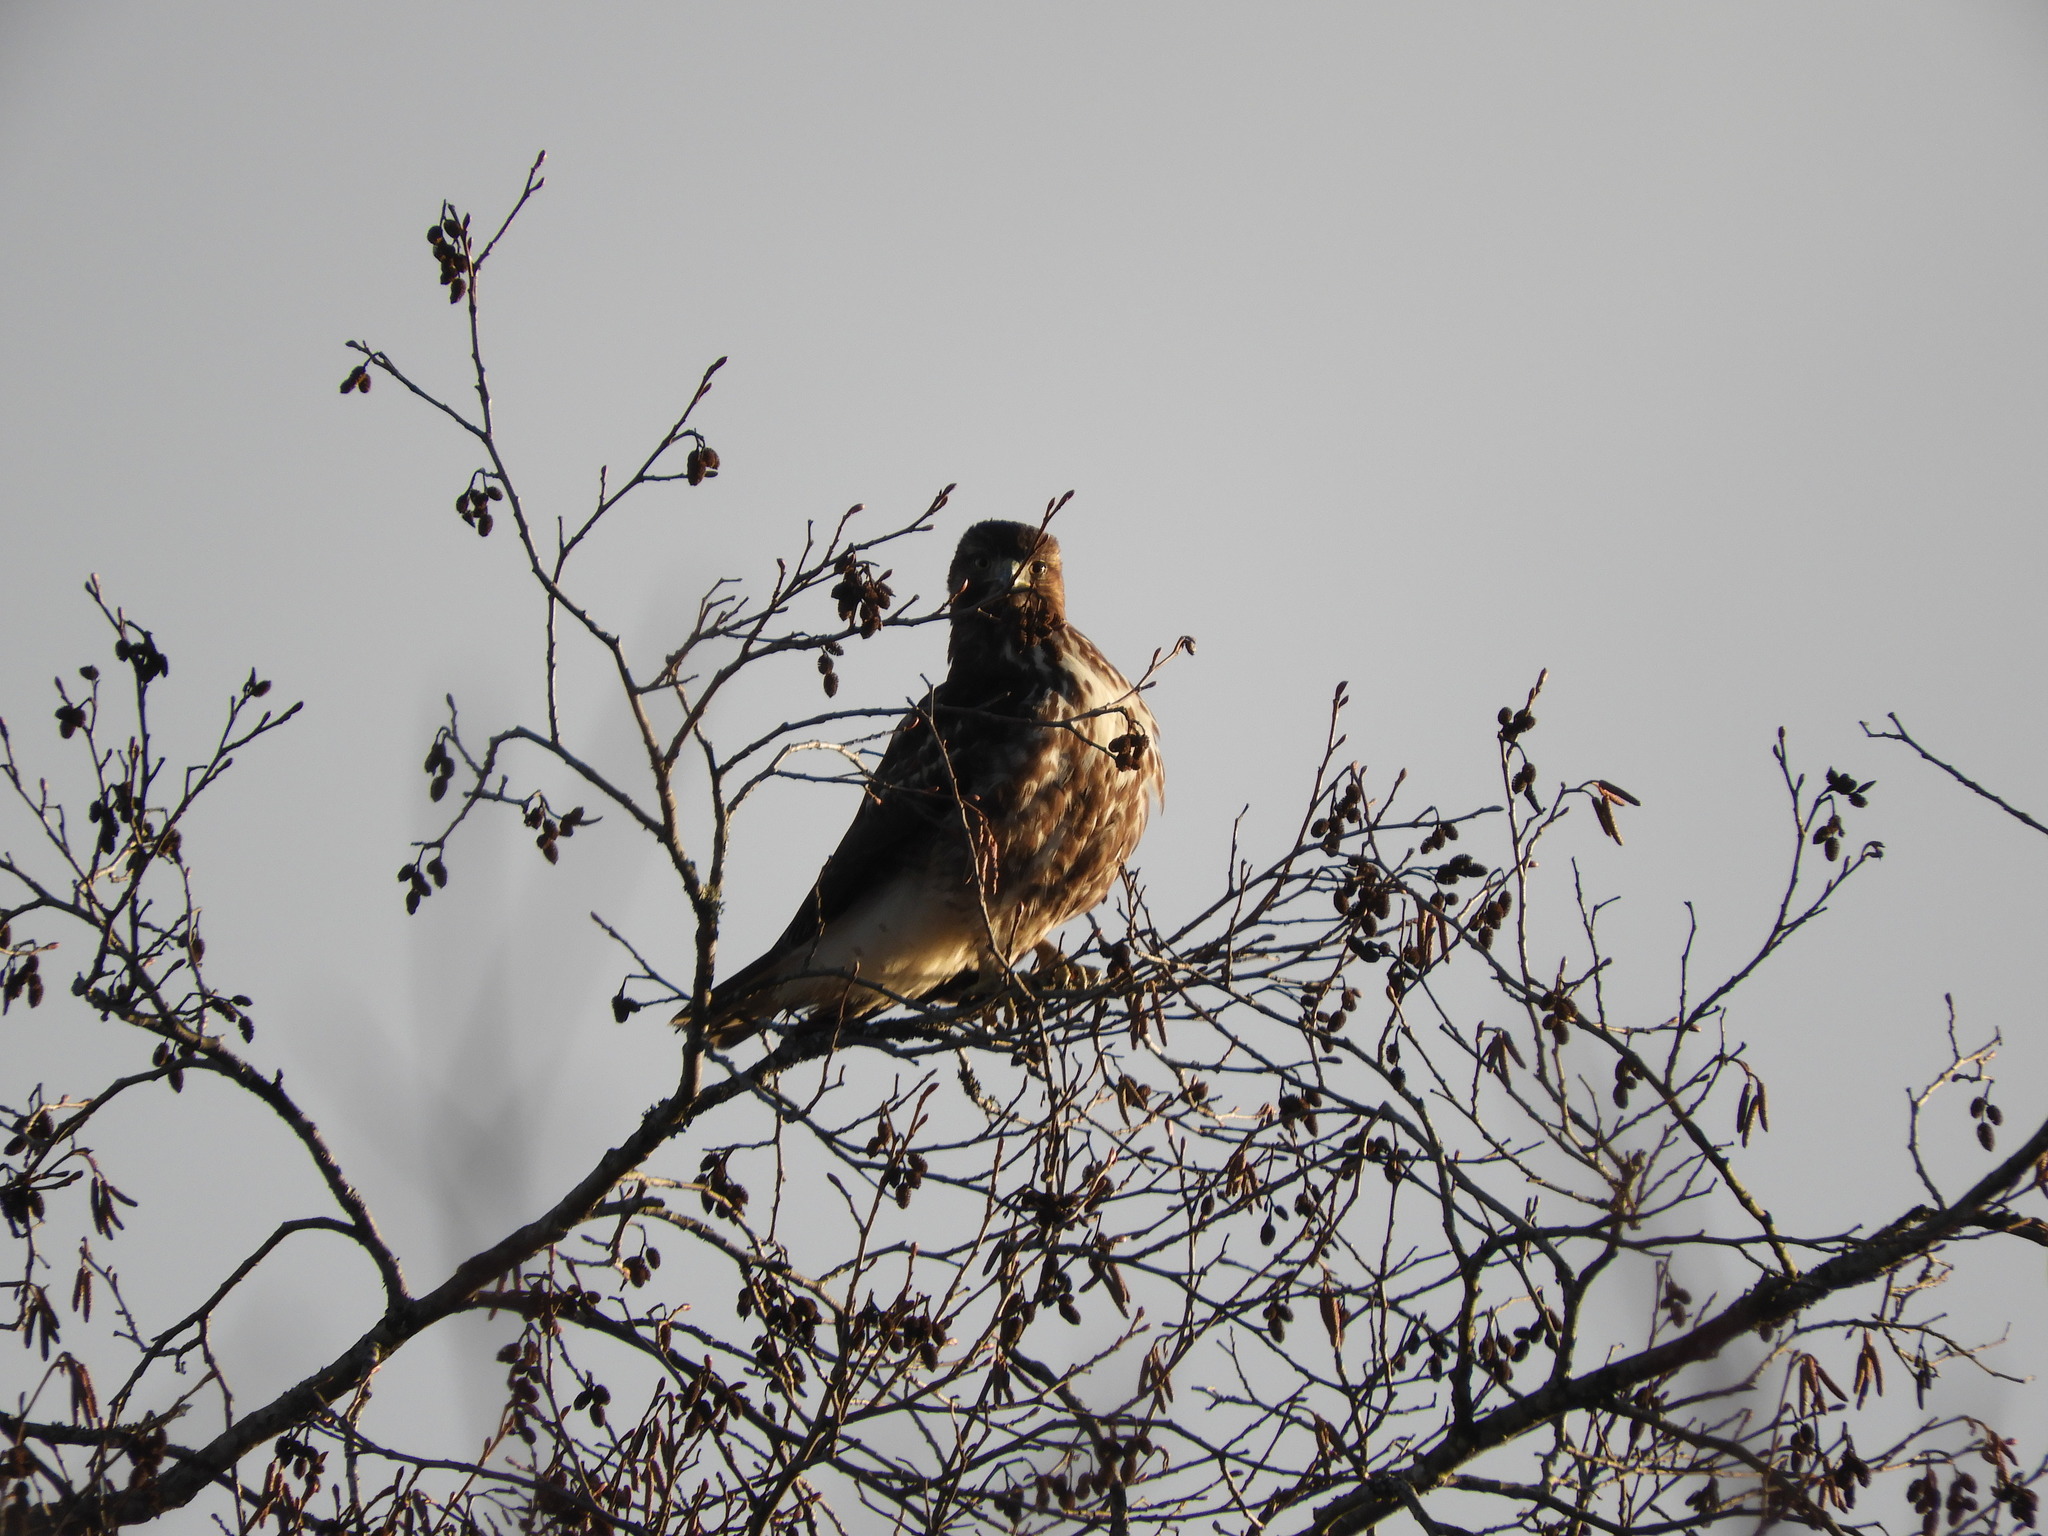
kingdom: Animalia
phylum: Chordata
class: Aves
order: Accipitriformes
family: Accipitridae
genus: Buteo
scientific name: Buteo jamaicensis
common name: Red-tailed hawk
